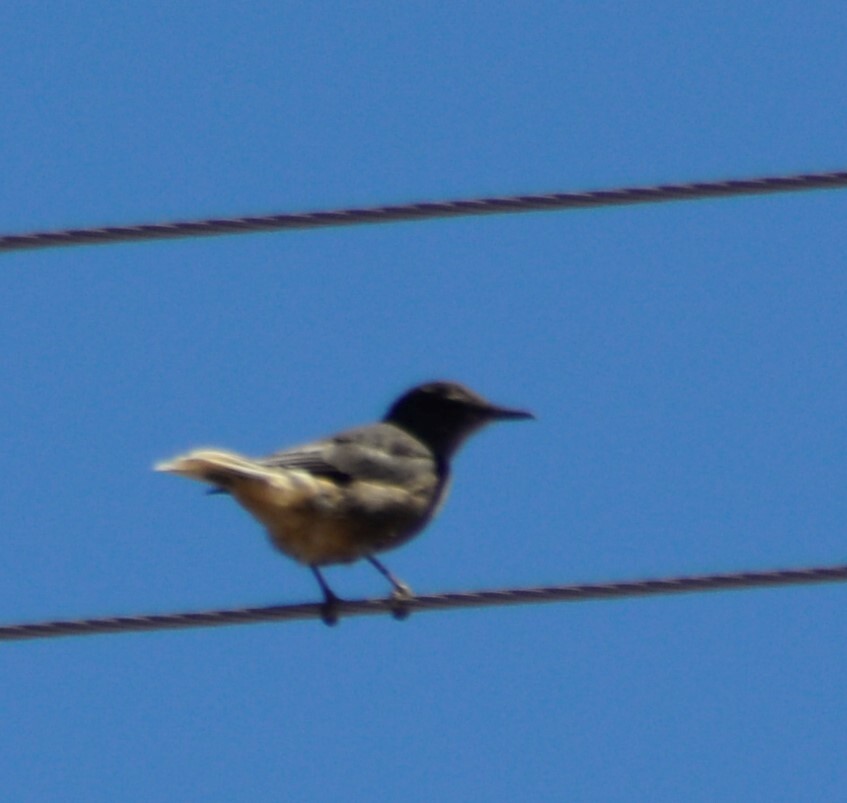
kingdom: Animalia
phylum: Chordata
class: Aves
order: Passeriformes
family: Tyrannidae
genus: Agriornis
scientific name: Agriornis montanus
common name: Black-billed shrike-tyrant
